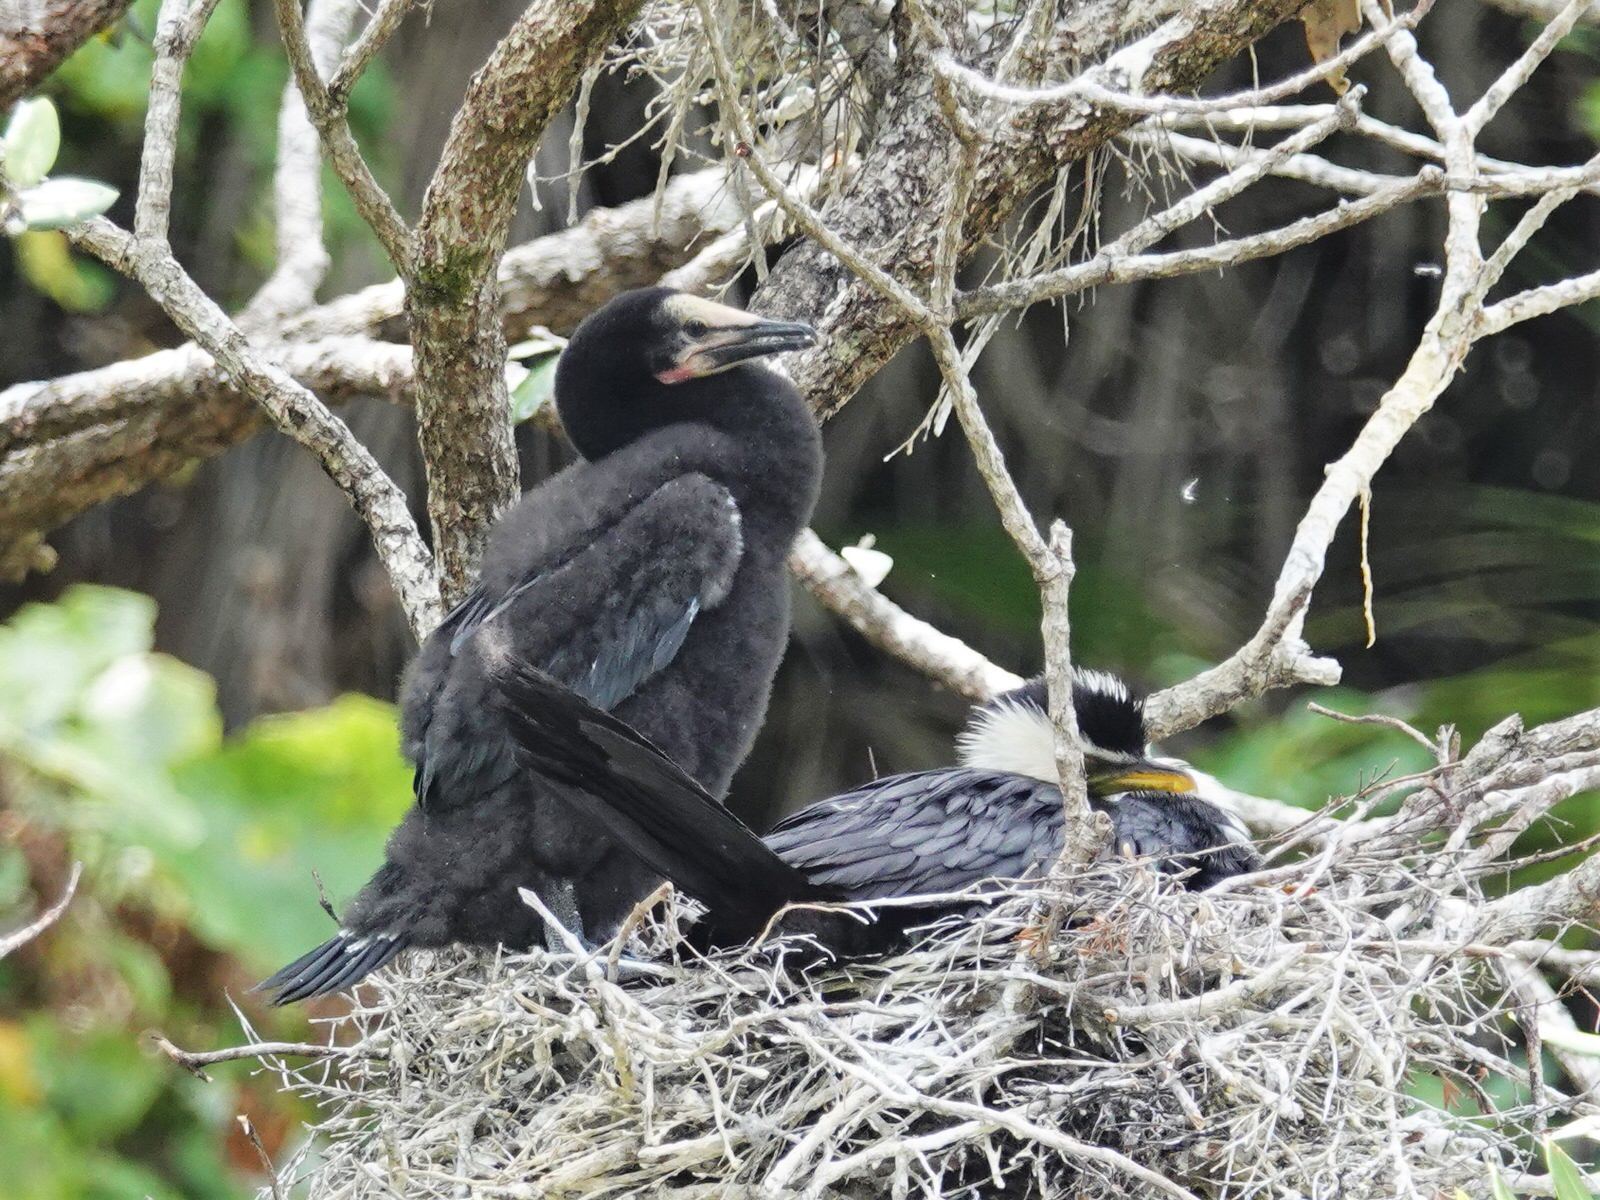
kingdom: Animalia
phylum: Chordata
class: Aves
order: Suliformes
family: Phalacrocoracidae
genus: Microcarbo
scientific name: Microcarbo melanoleucos
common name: Little pied cormorant
